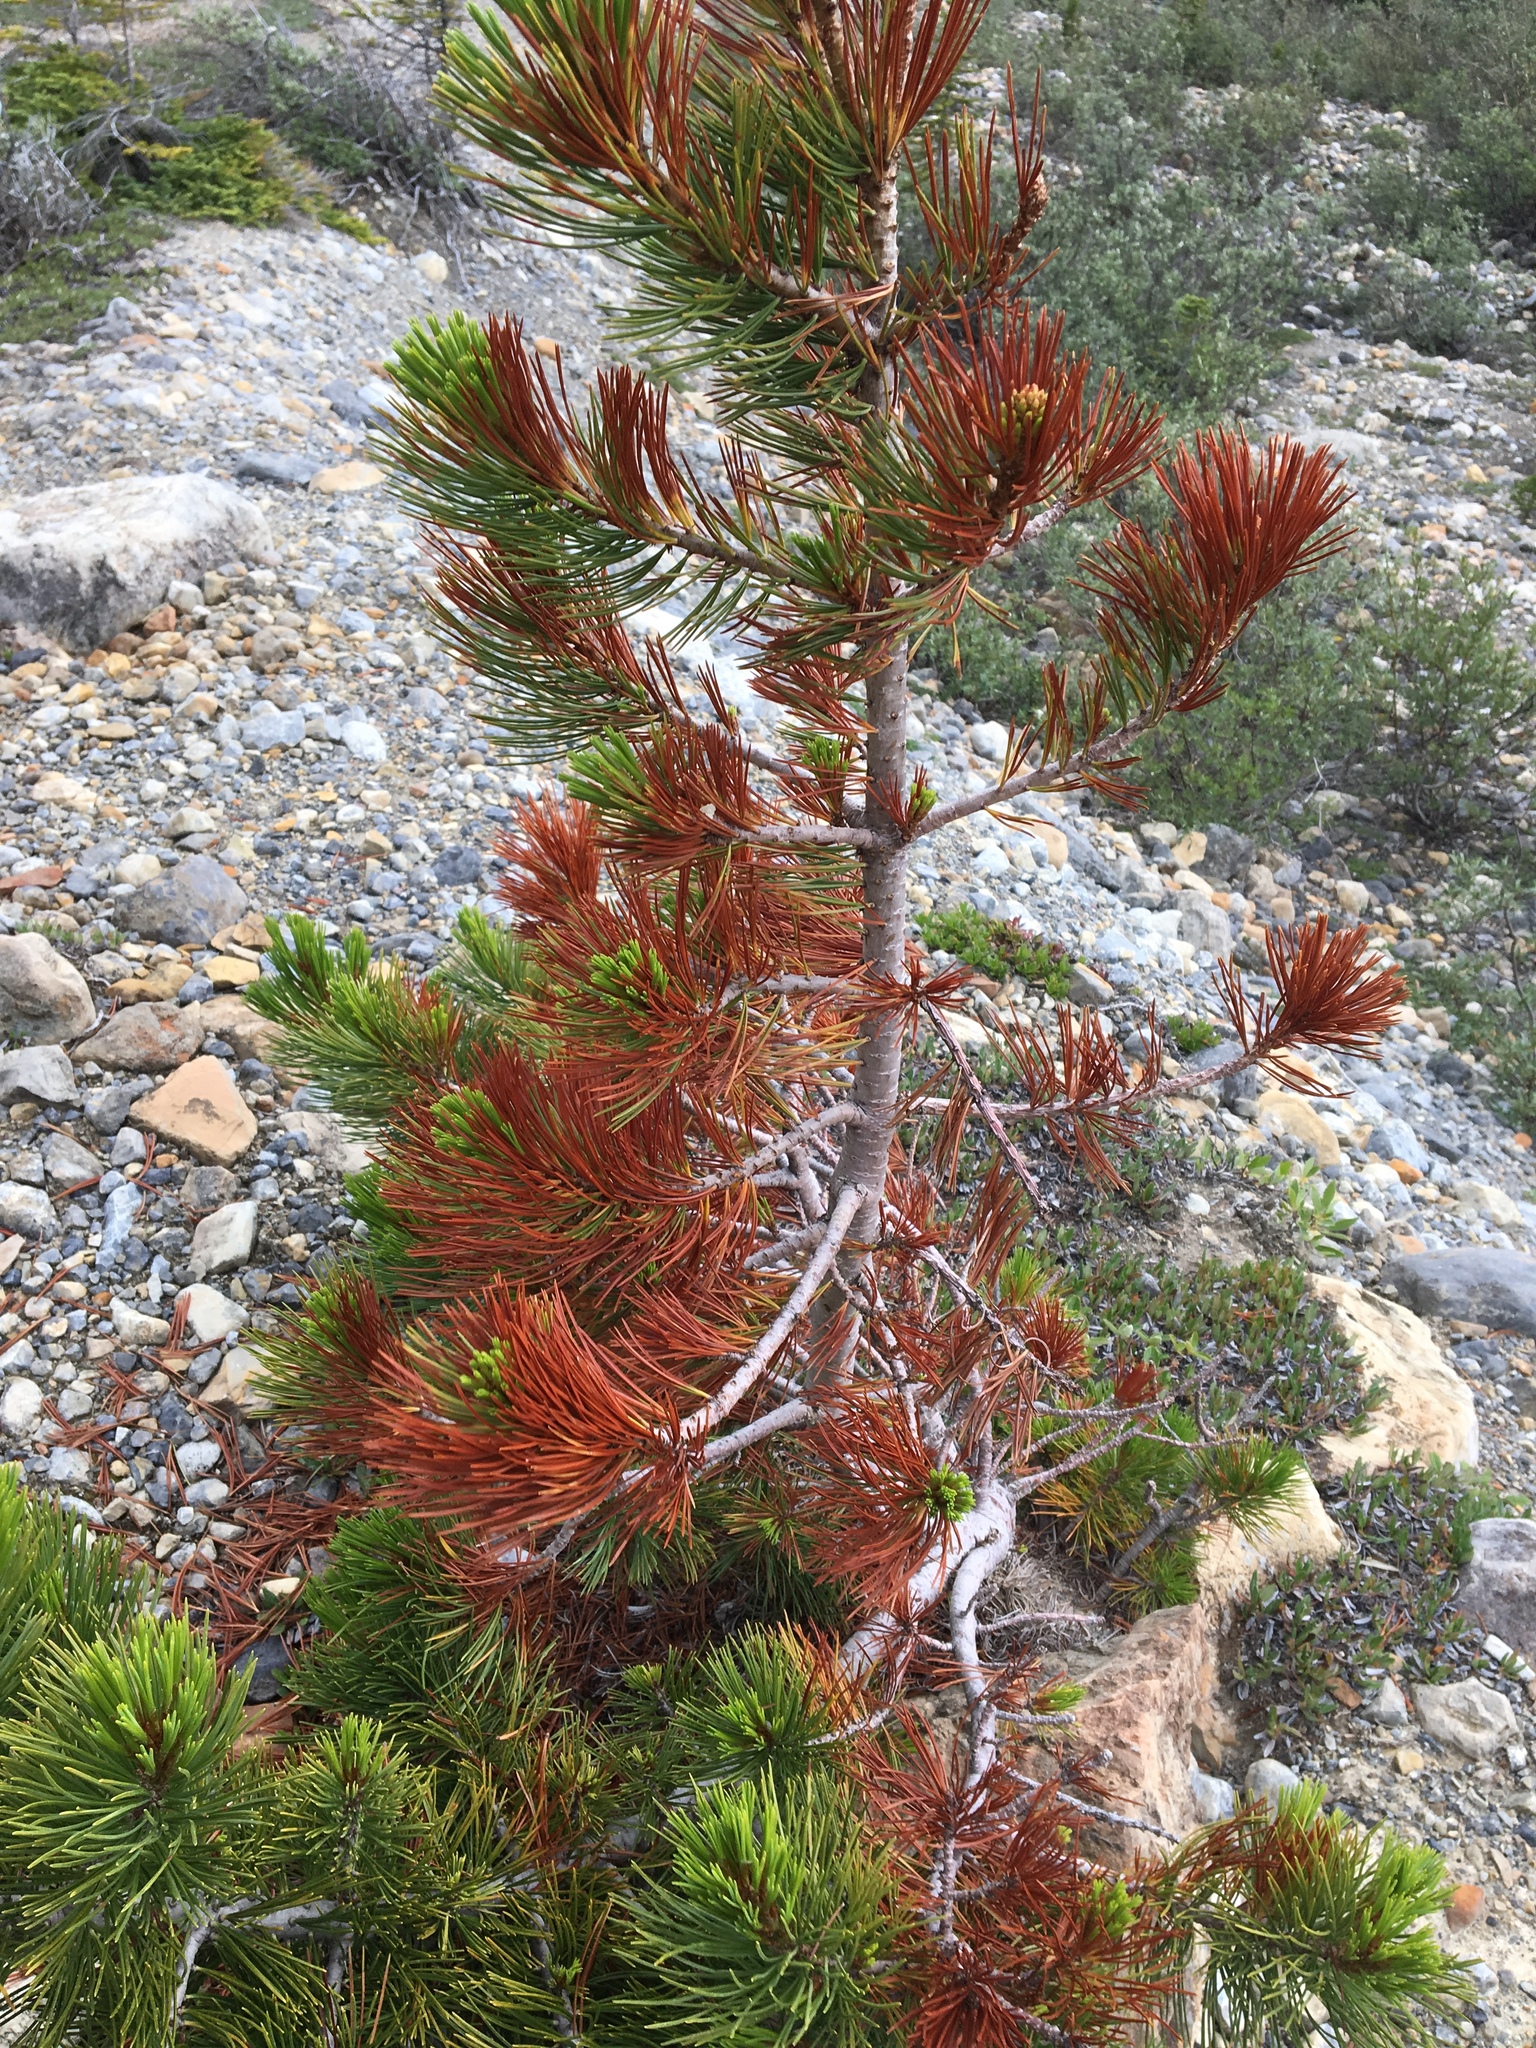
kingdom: Plantae
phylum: Tracheophyta
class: Pinopsida
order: Pinales
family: Pinaceae
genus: Pinus
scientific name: Pinus albicaulis
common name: Whitebark pine
